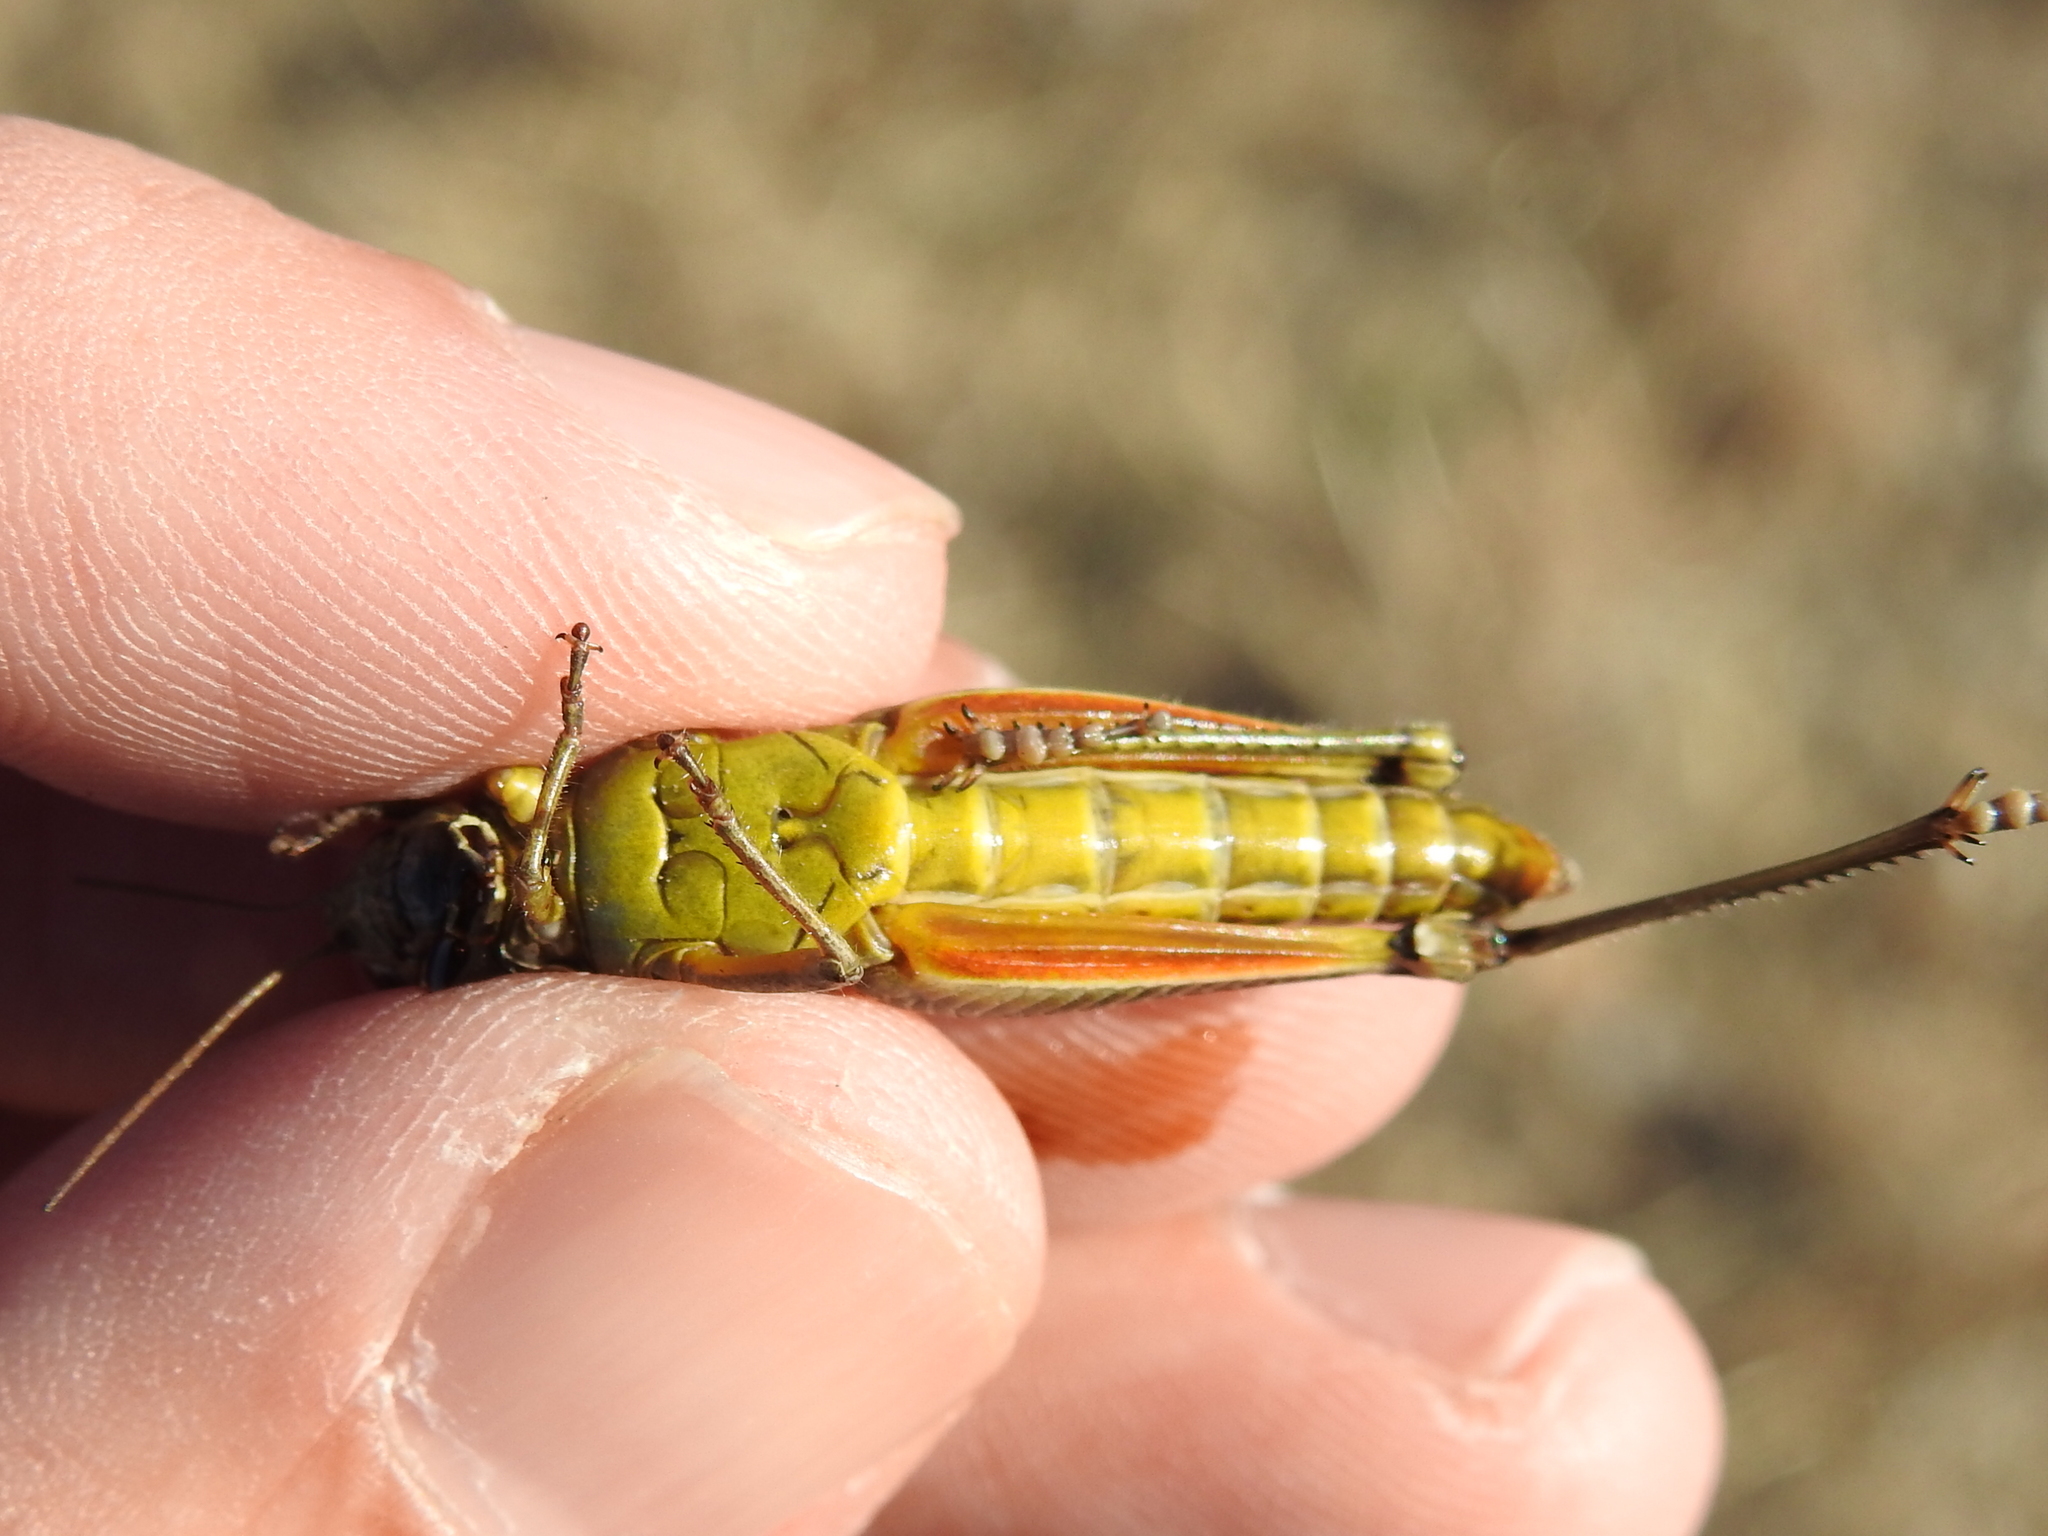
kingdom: Animalia
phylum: Arthropoda
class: Insecta
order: Orthoptera
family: Acrididae
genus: Melanoplus
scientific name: Melanoplus femurrubrum
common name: Red-legged grasshopper
